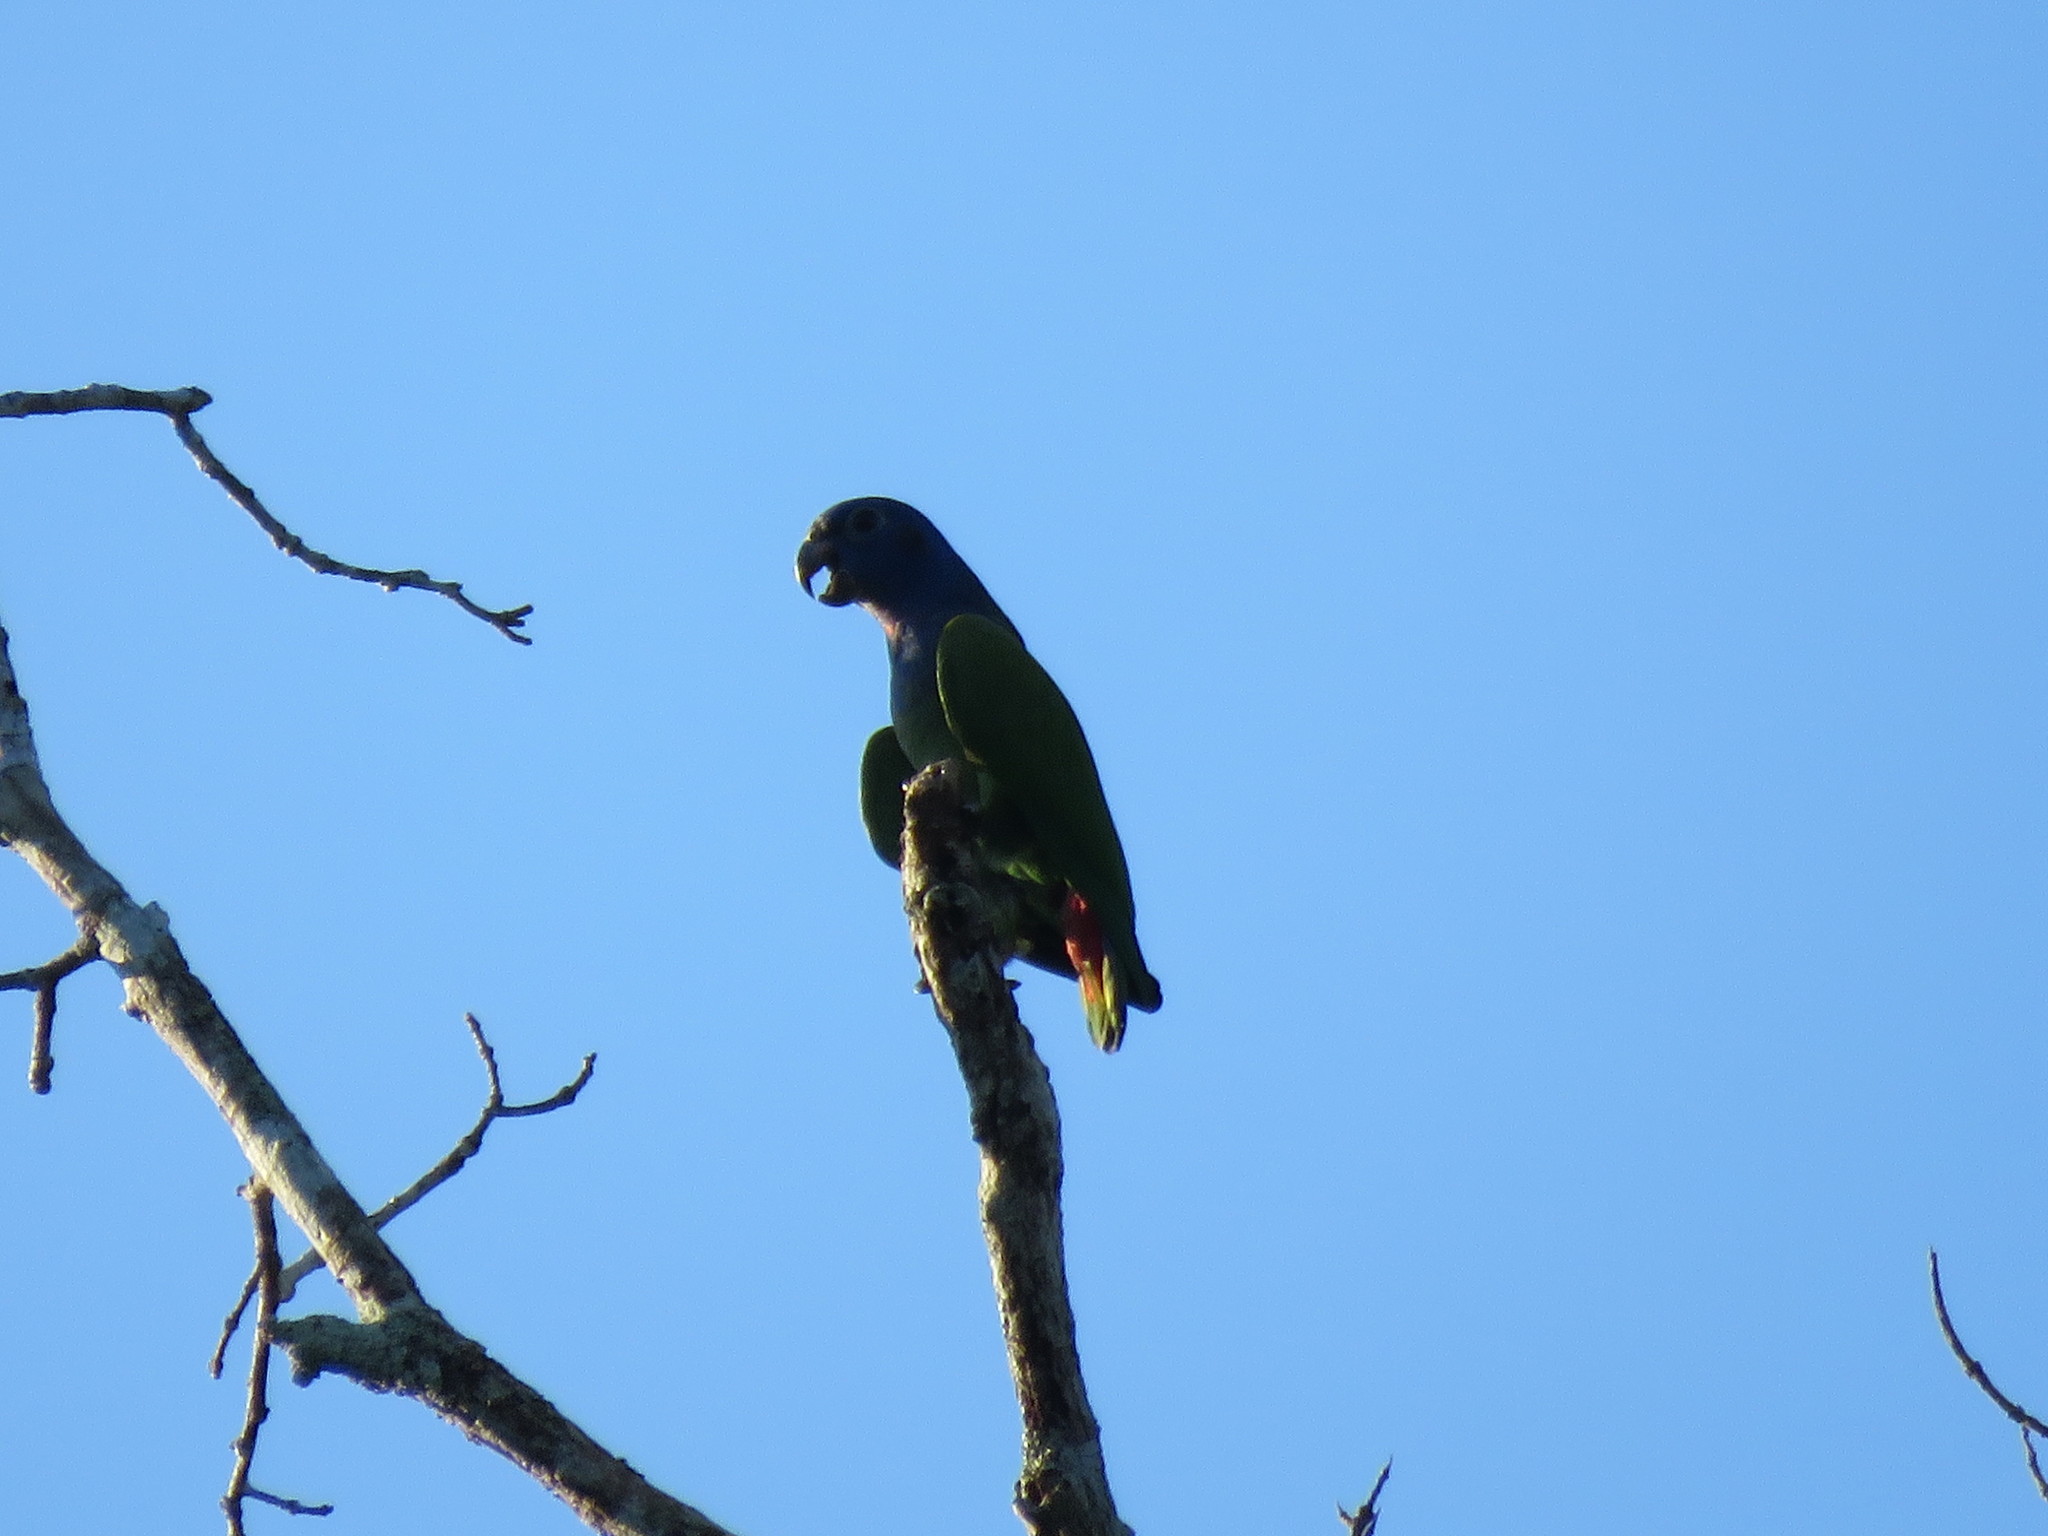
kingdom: Animalia
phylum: Chordata
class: Aves
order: Psittaciformes
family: Psittacidae
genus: Pionus
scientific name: Pionus menstruus
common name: Blue-headed parrot
